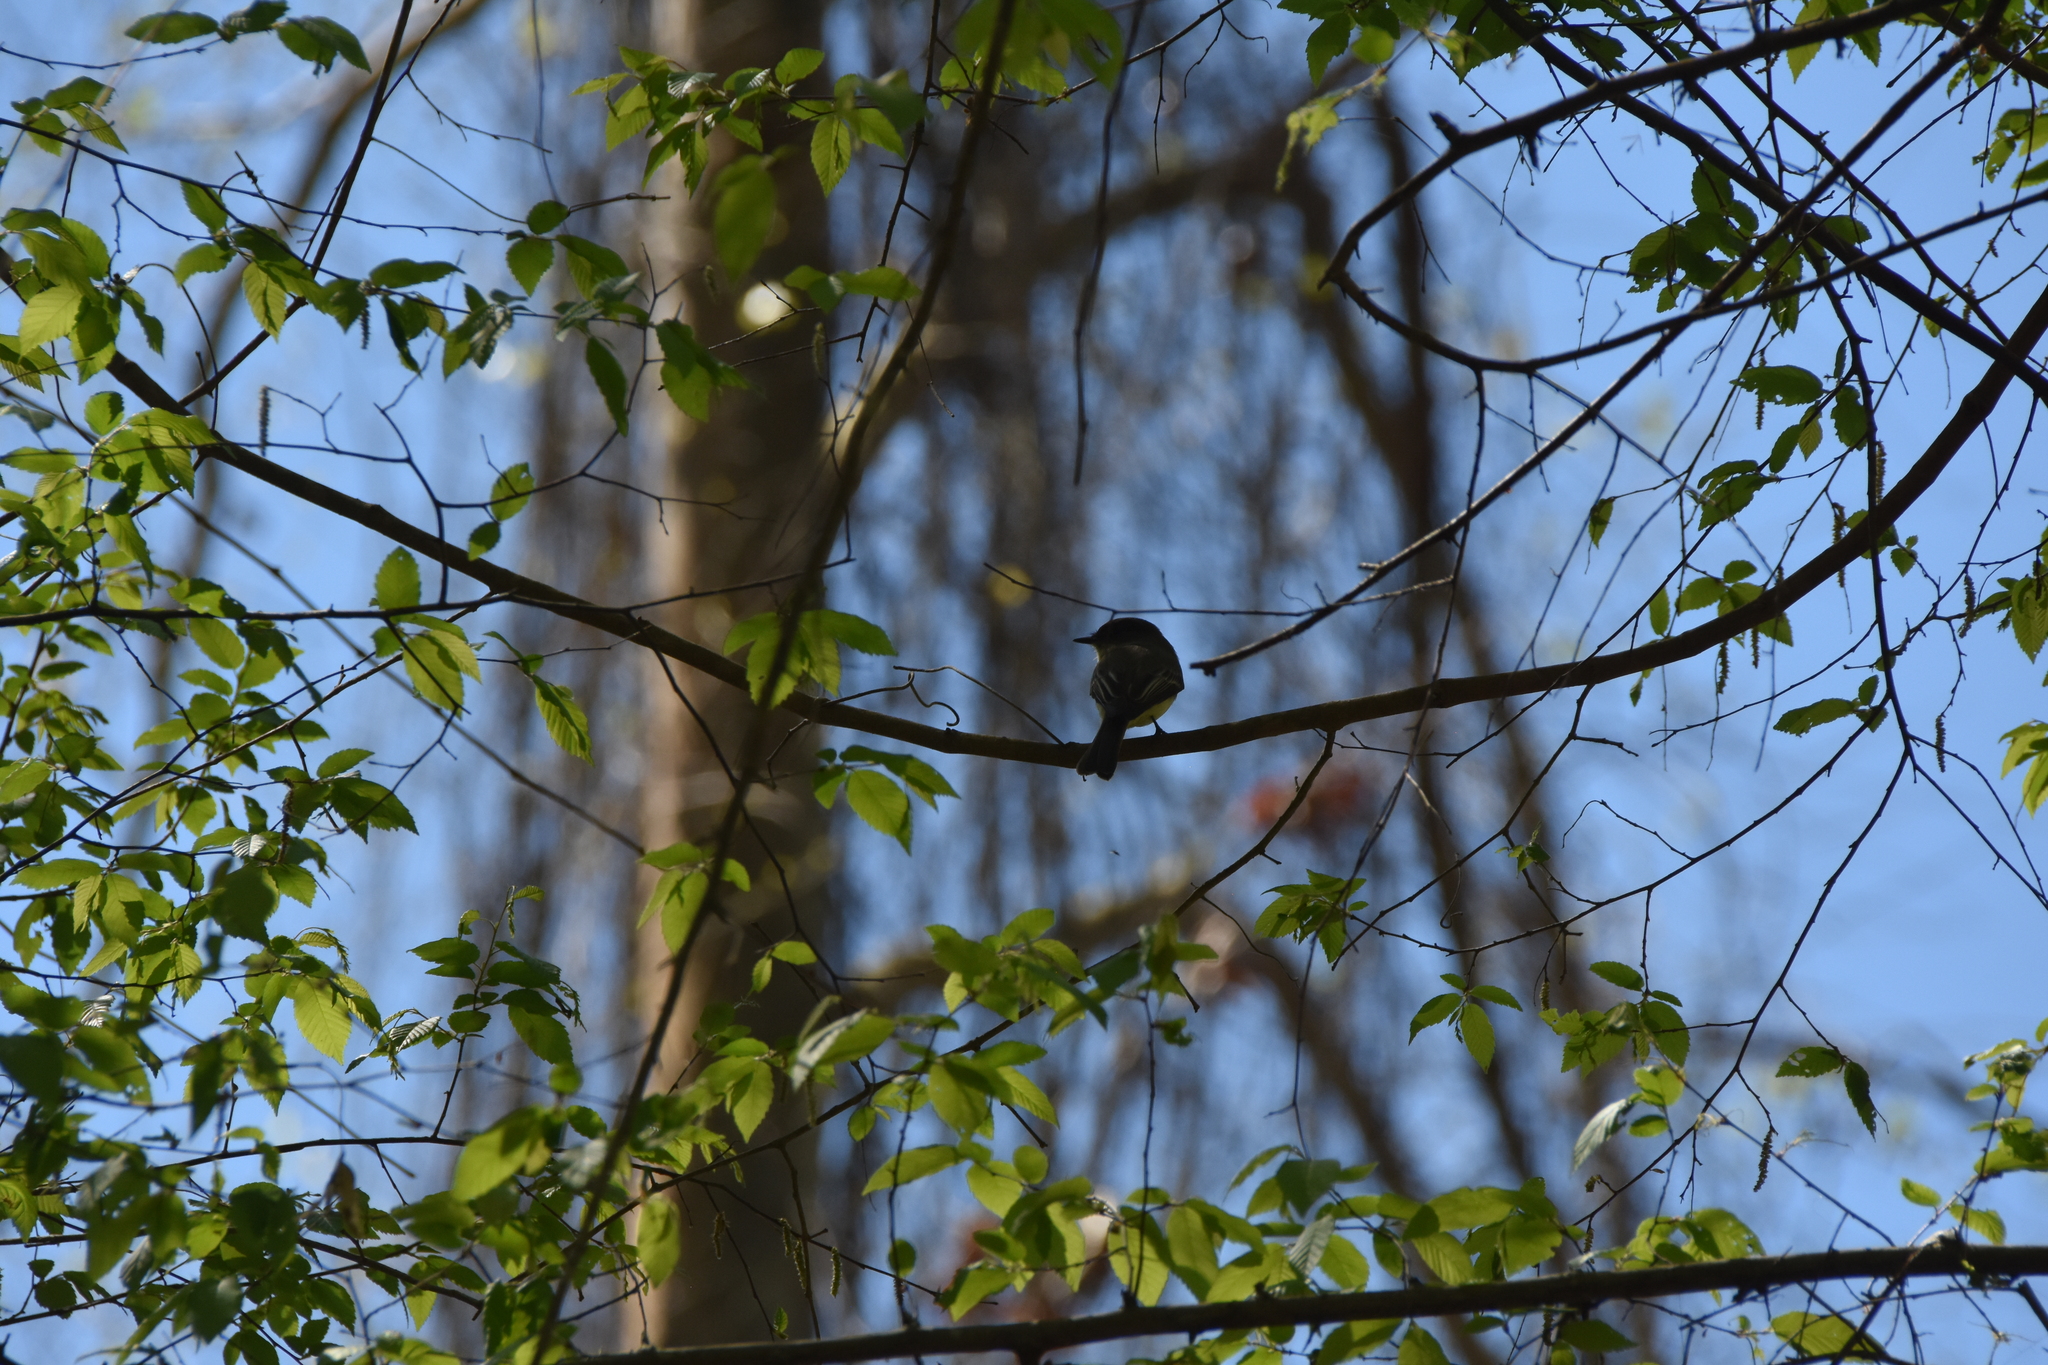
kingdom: Animalia
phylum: Chordata
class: Aves
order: Passeriformes
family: Tyrannidae
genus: Sayornis
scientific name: Sayornis phoebe
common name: Eastern phoebe
